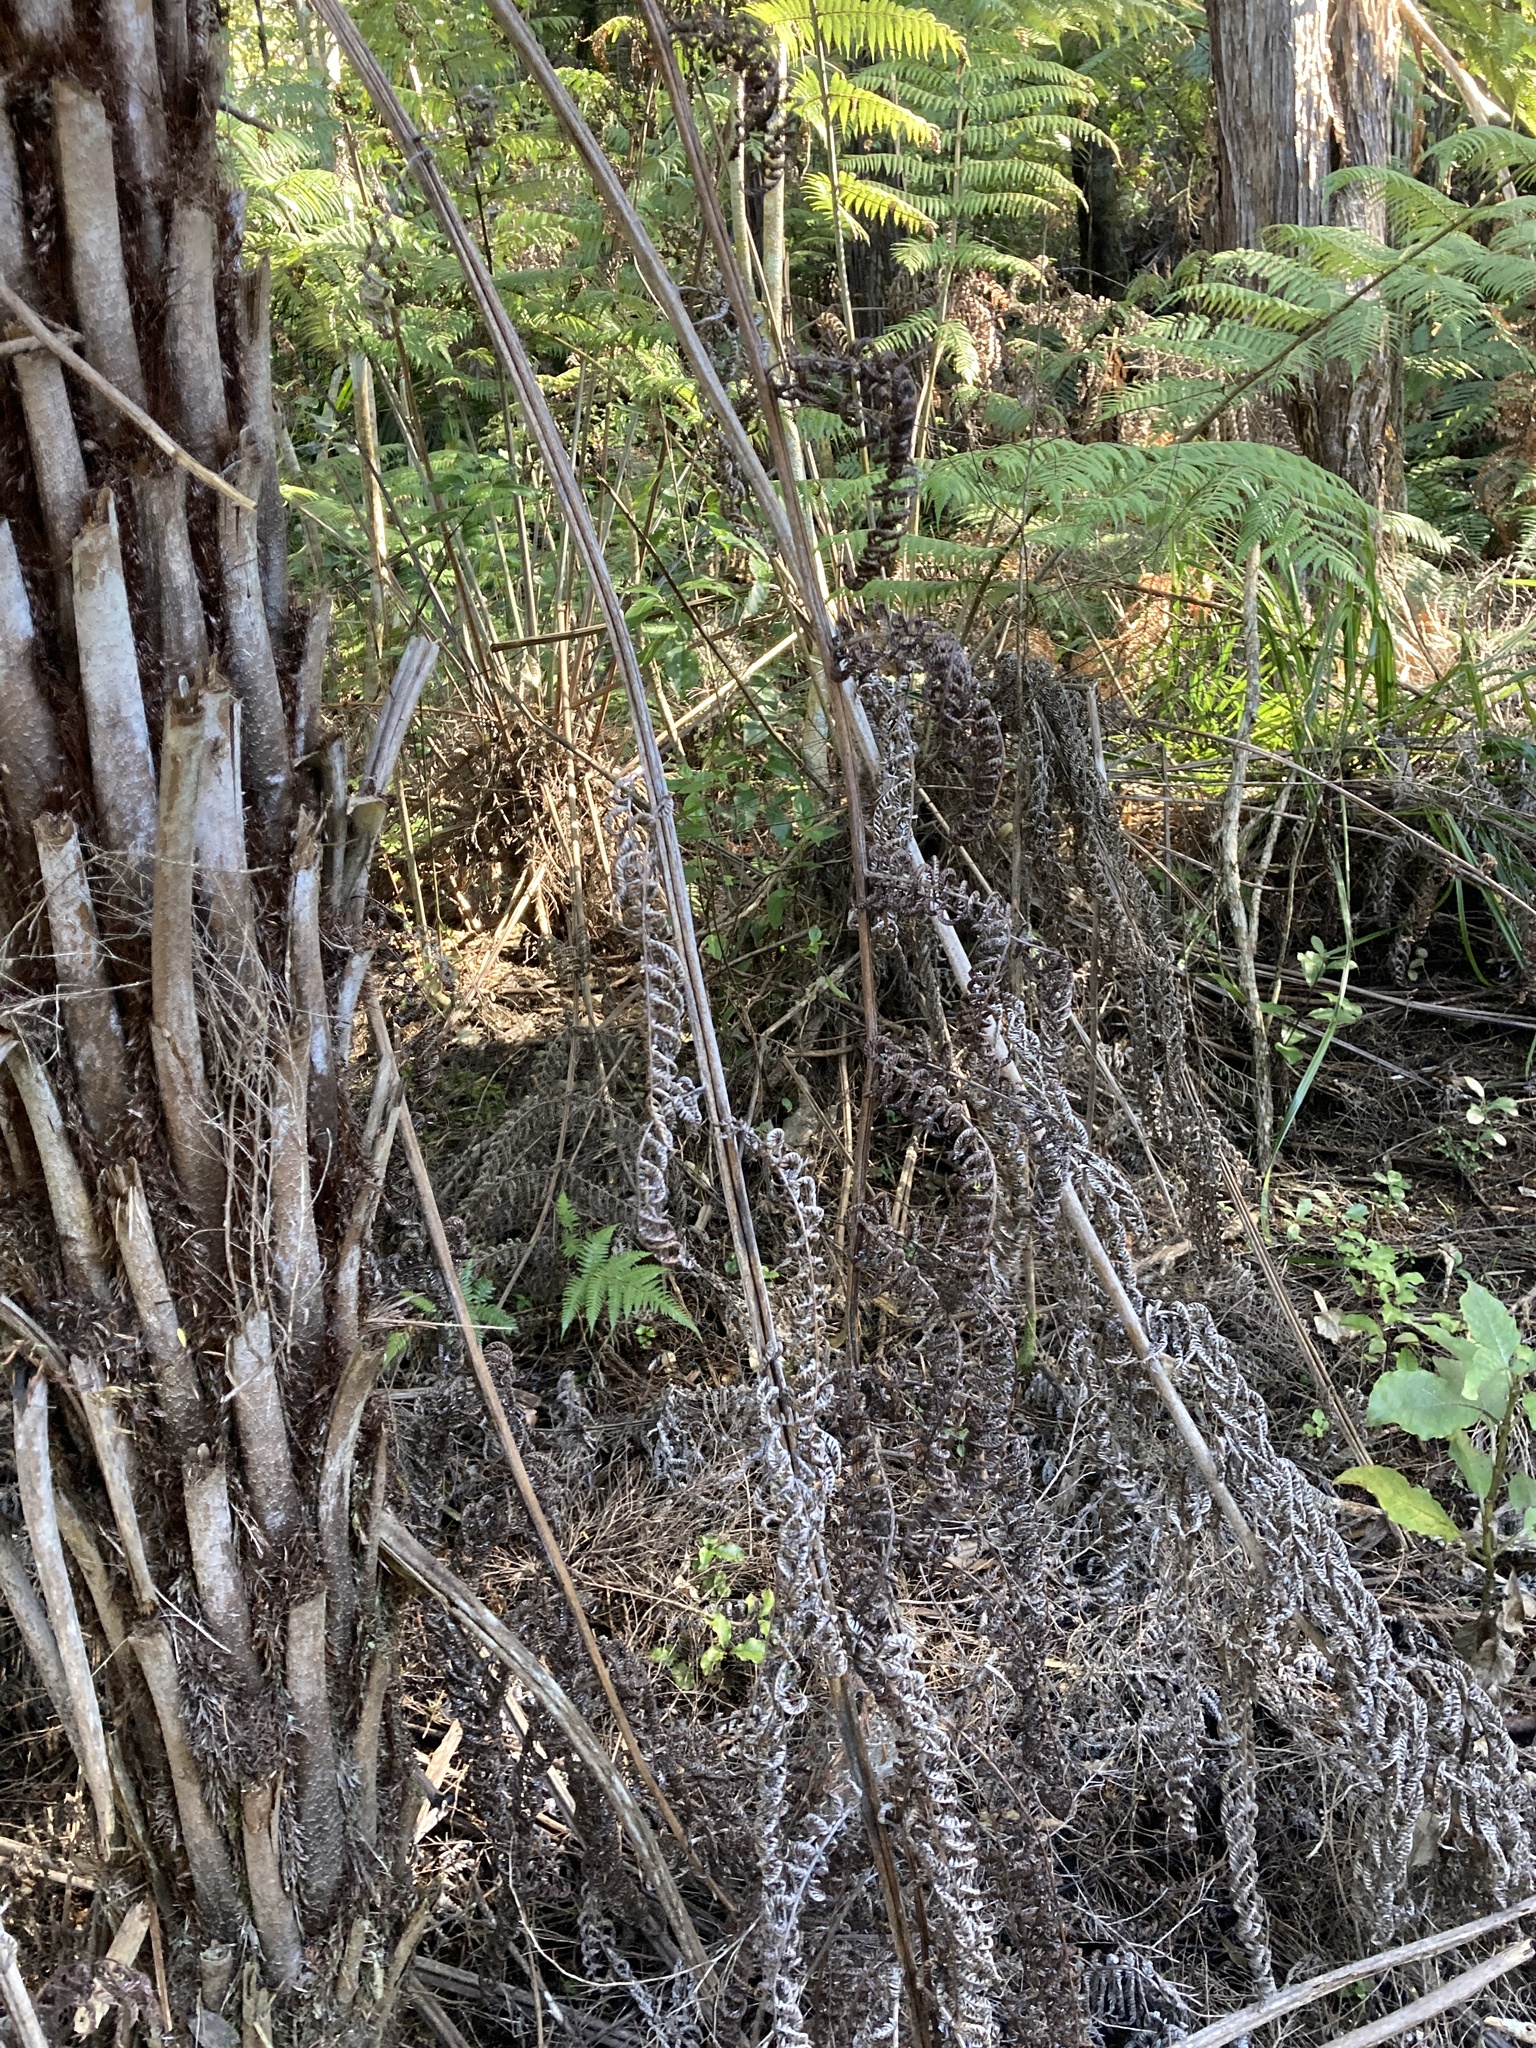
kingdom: Plantae
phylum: Tracheophyta
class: Polypodiopsida
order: Cyatheales
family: Cyatheaceae
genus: Alsophila
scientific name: Alsophila dealbata
